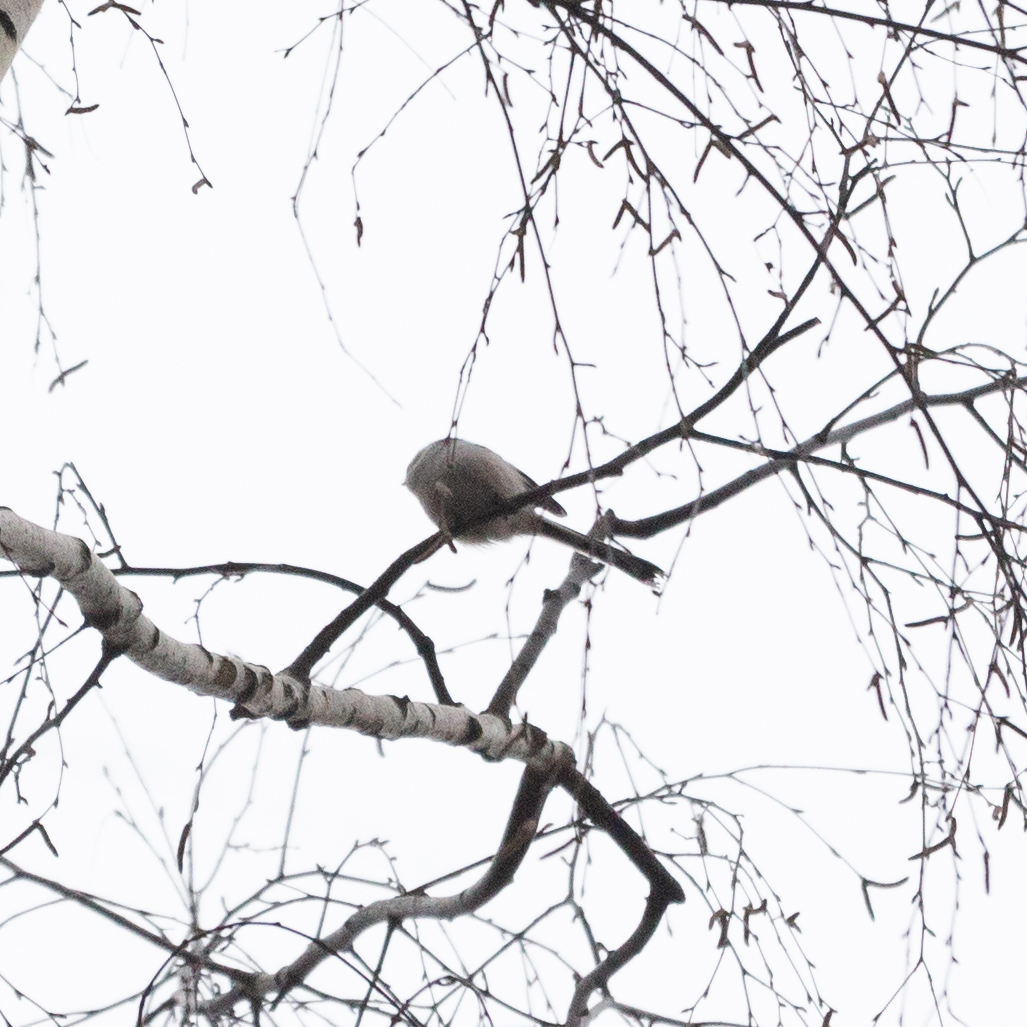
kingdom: Animalia
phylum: Chordata
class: Aves
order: Passeriformes
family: Aegithalidae
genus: Aegithalos
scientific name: Aegithalos caudatus
